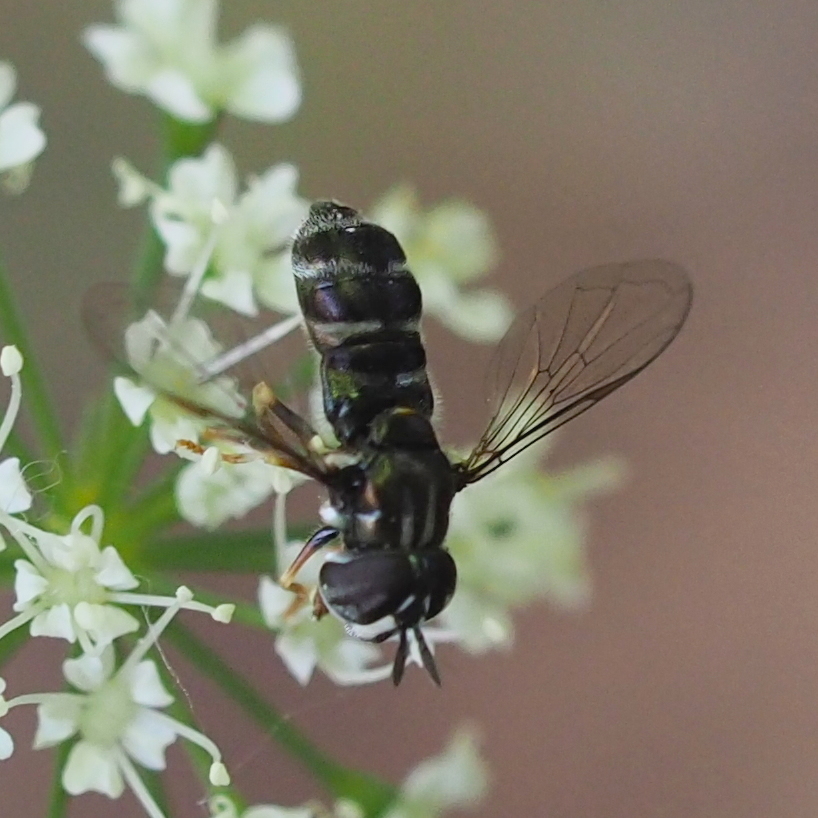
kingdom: Animalia
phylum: Arthropoda
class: Insecta
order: Diptera
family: Syrphidae
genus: Paragus
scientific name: Paragus
